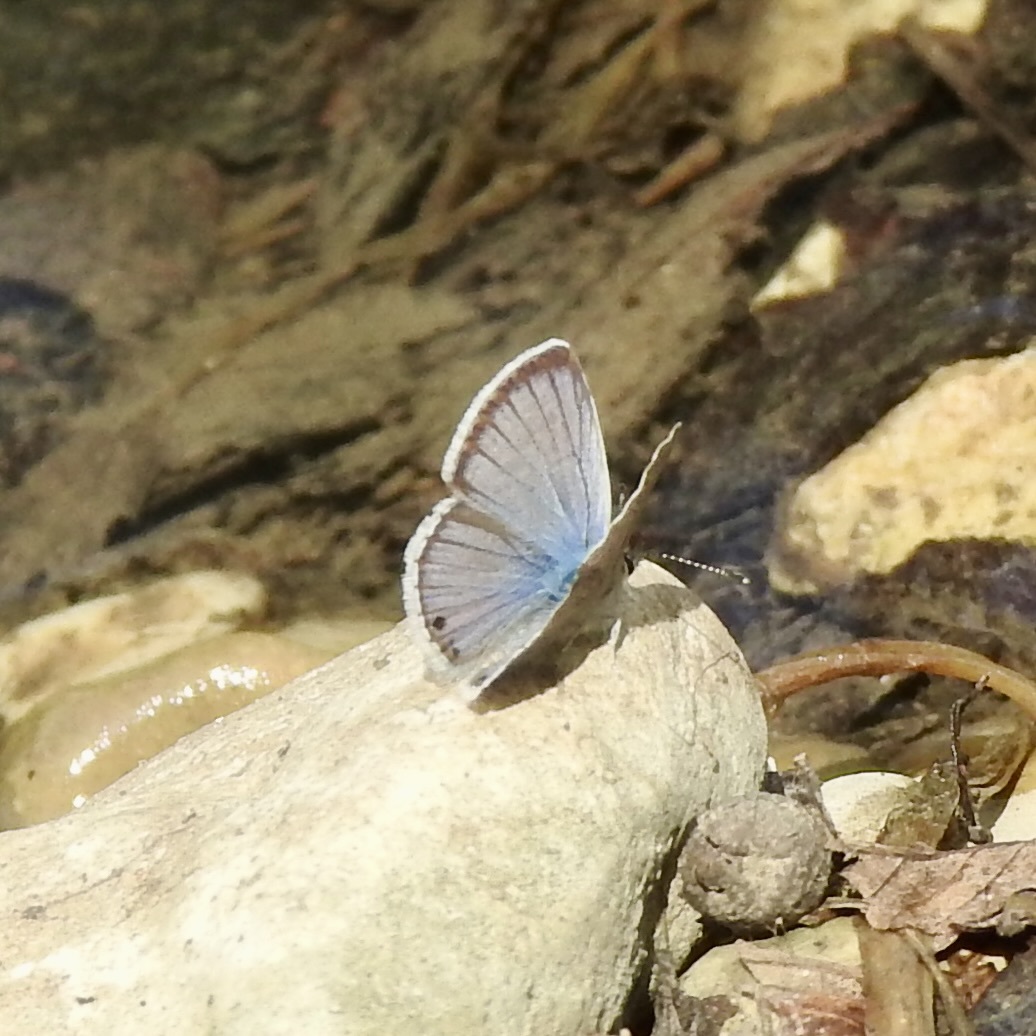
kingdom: Animalia
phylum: Arthropoda
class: Insecta
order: Lepidoptera
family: Lycaenidae
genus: Echinargus
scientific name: Echinargus isola
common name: Reakirt's blue
